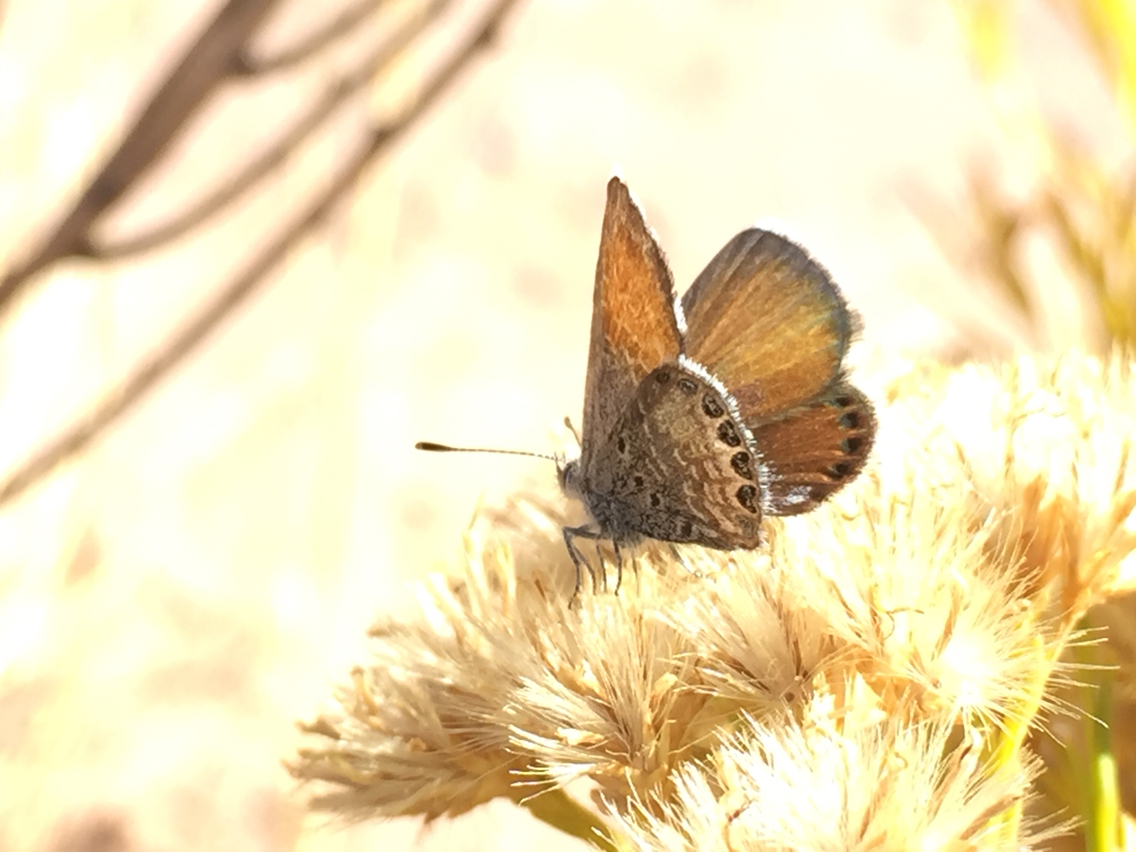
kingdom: Animalia
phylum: Arthropoda
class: Insecta
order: Lepidoptera
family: Lycaenidae
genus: Brephidium
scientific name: Brephidium exilis
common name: Pygmy blue
